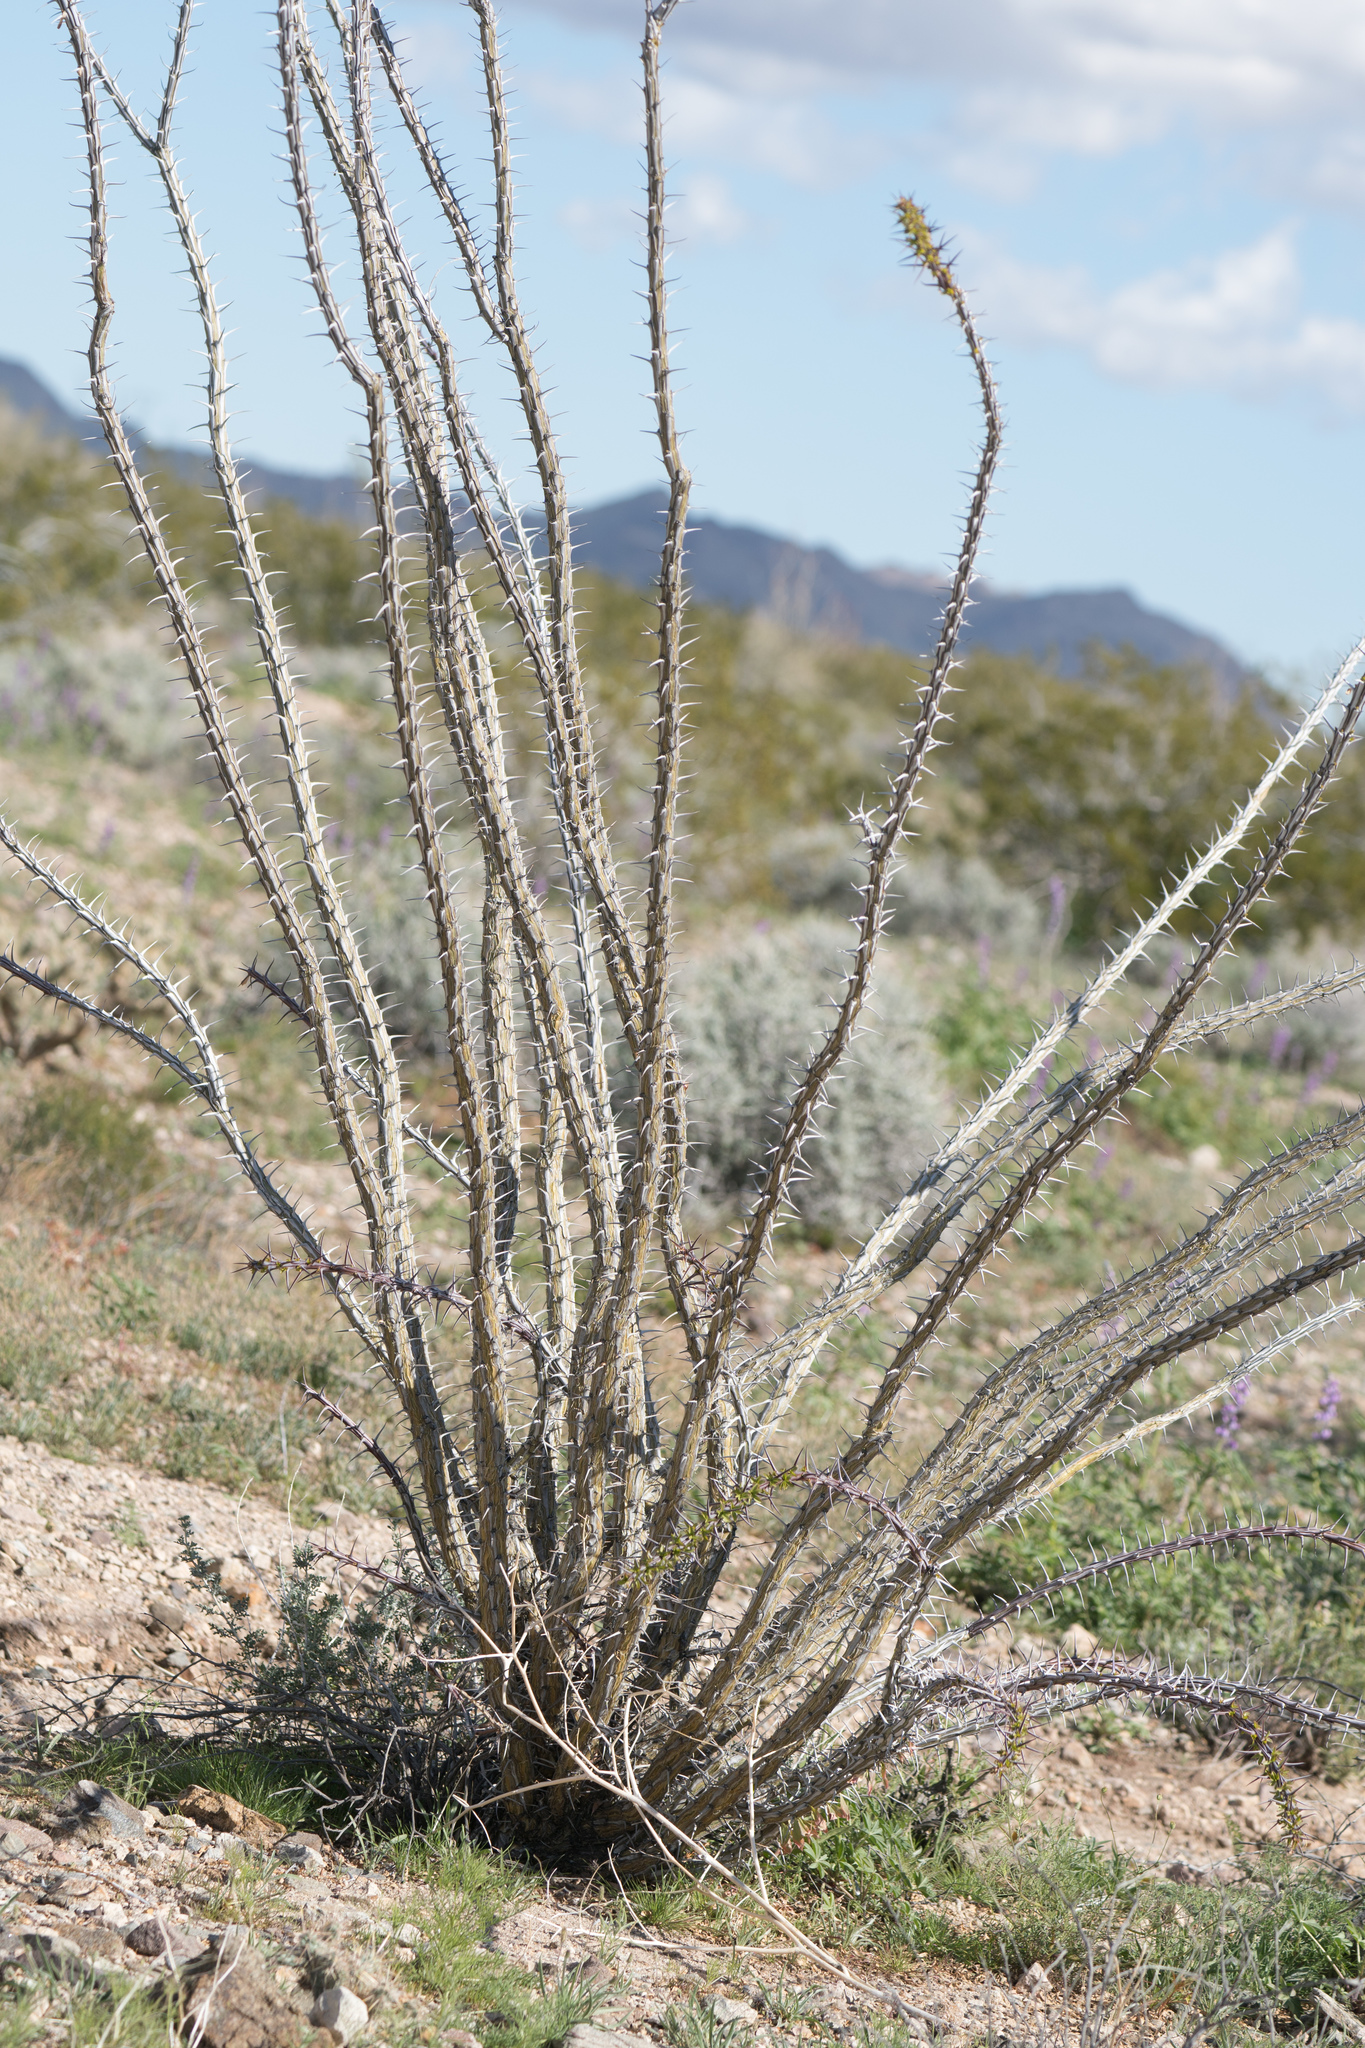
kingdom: Plantae
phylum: Tracheophyta
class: Magnoliopsida
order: Ericales
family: Fouquieriaceae
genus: Fouquieria
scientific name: Fouquieria splendens
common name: Vine-cactus
